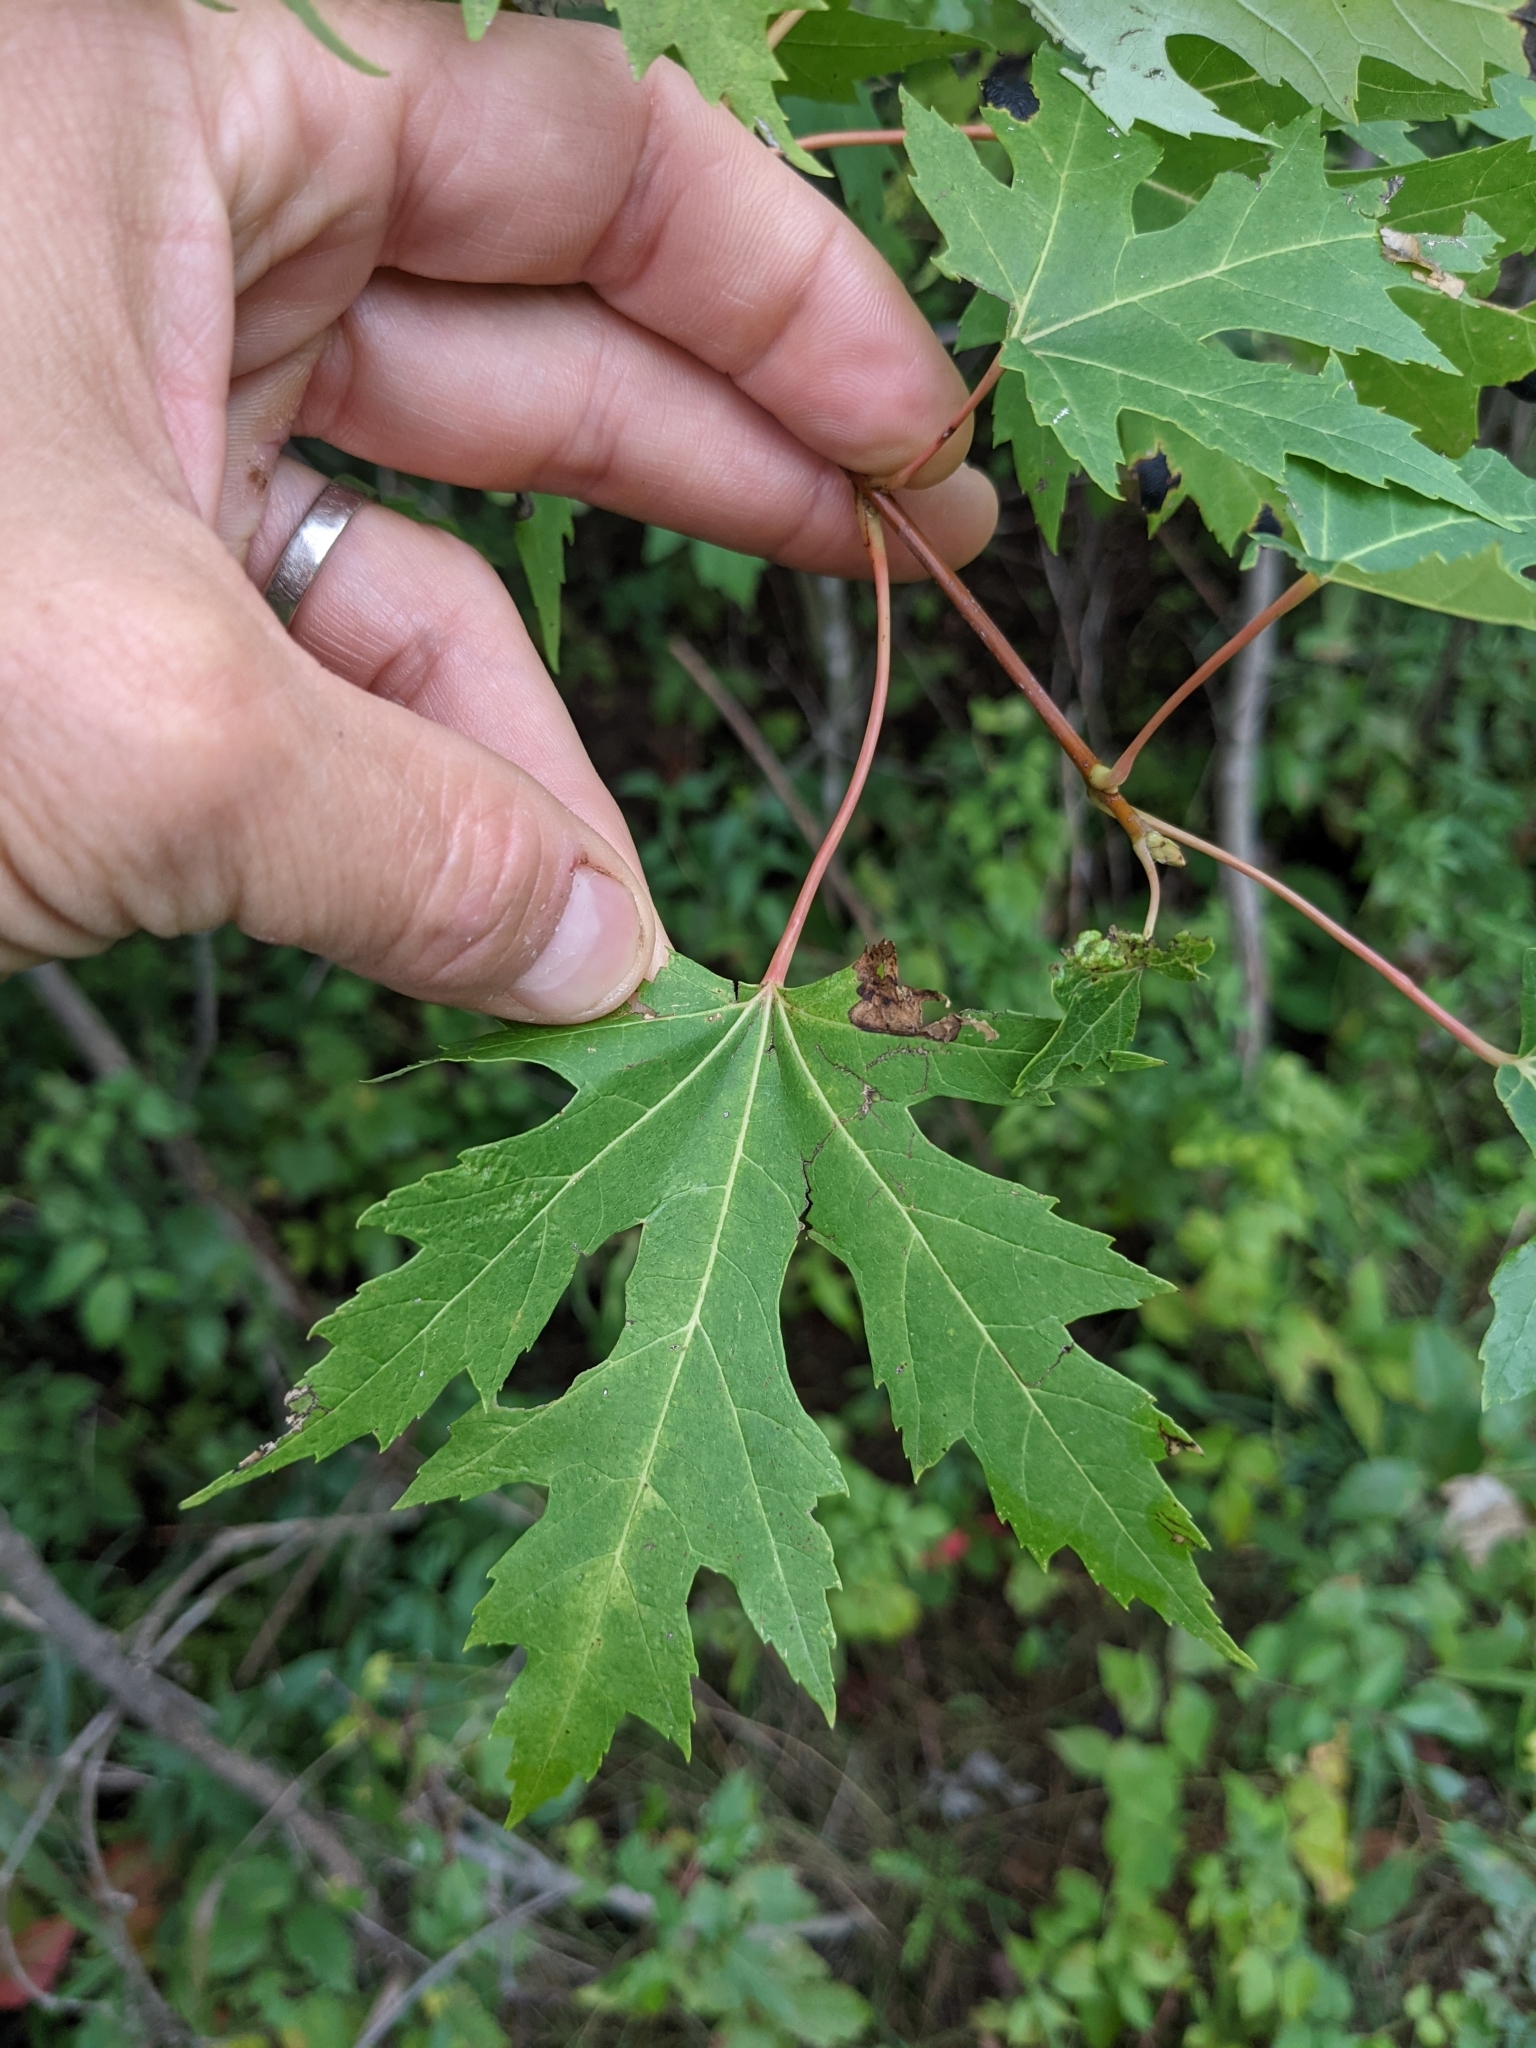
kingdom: Plantae
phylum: Tracheophyta
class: Magnoliopsida
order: Sapindales
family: Sapindaceae
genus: Acer
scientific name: Acer saccharinum
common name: Silver maple
